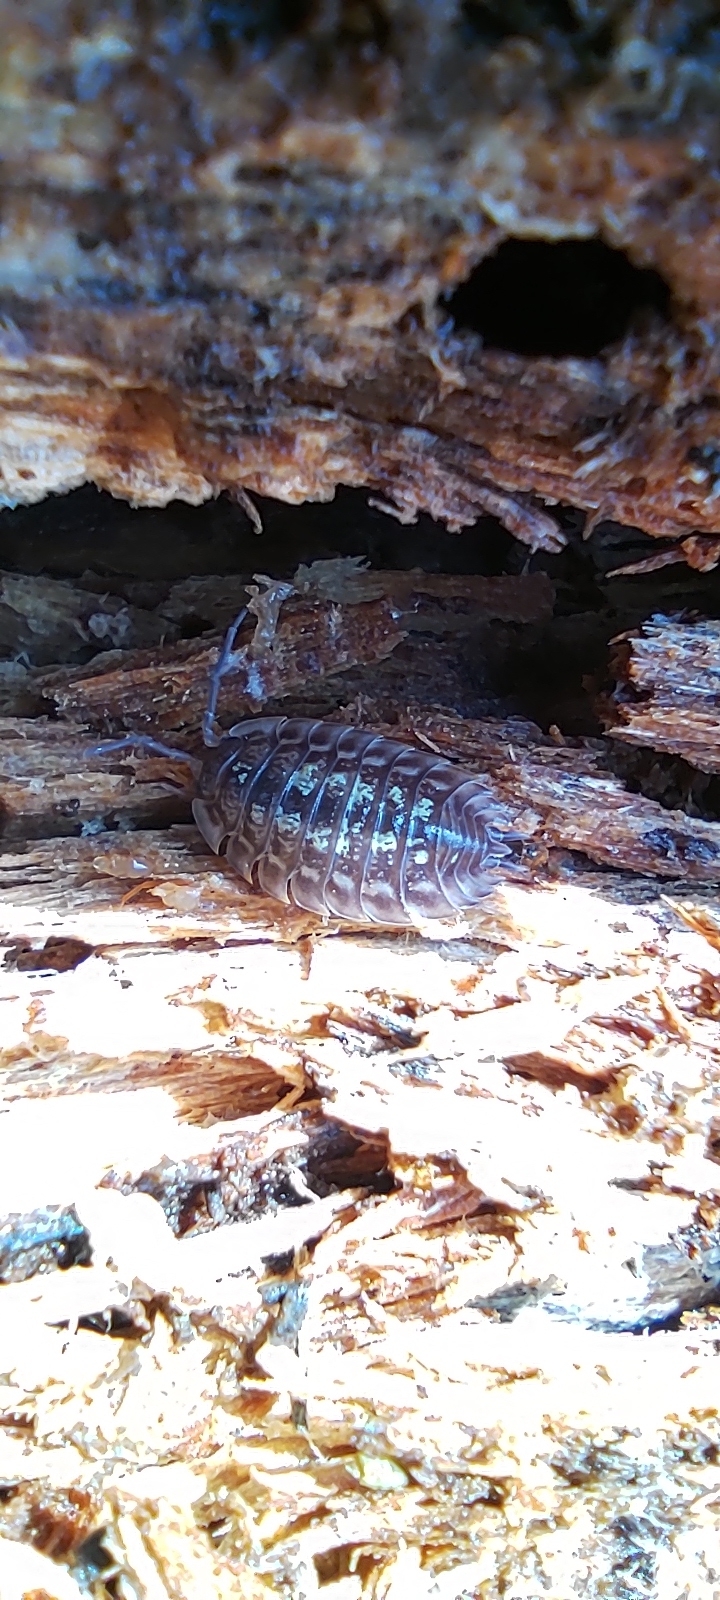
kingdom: Animalia
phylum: Arthropoda
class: Malacostraca
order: Isopoda
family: Oniscidae
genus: Oniscus
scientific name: Oniscus asellus
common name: Common shiny woodlouse
